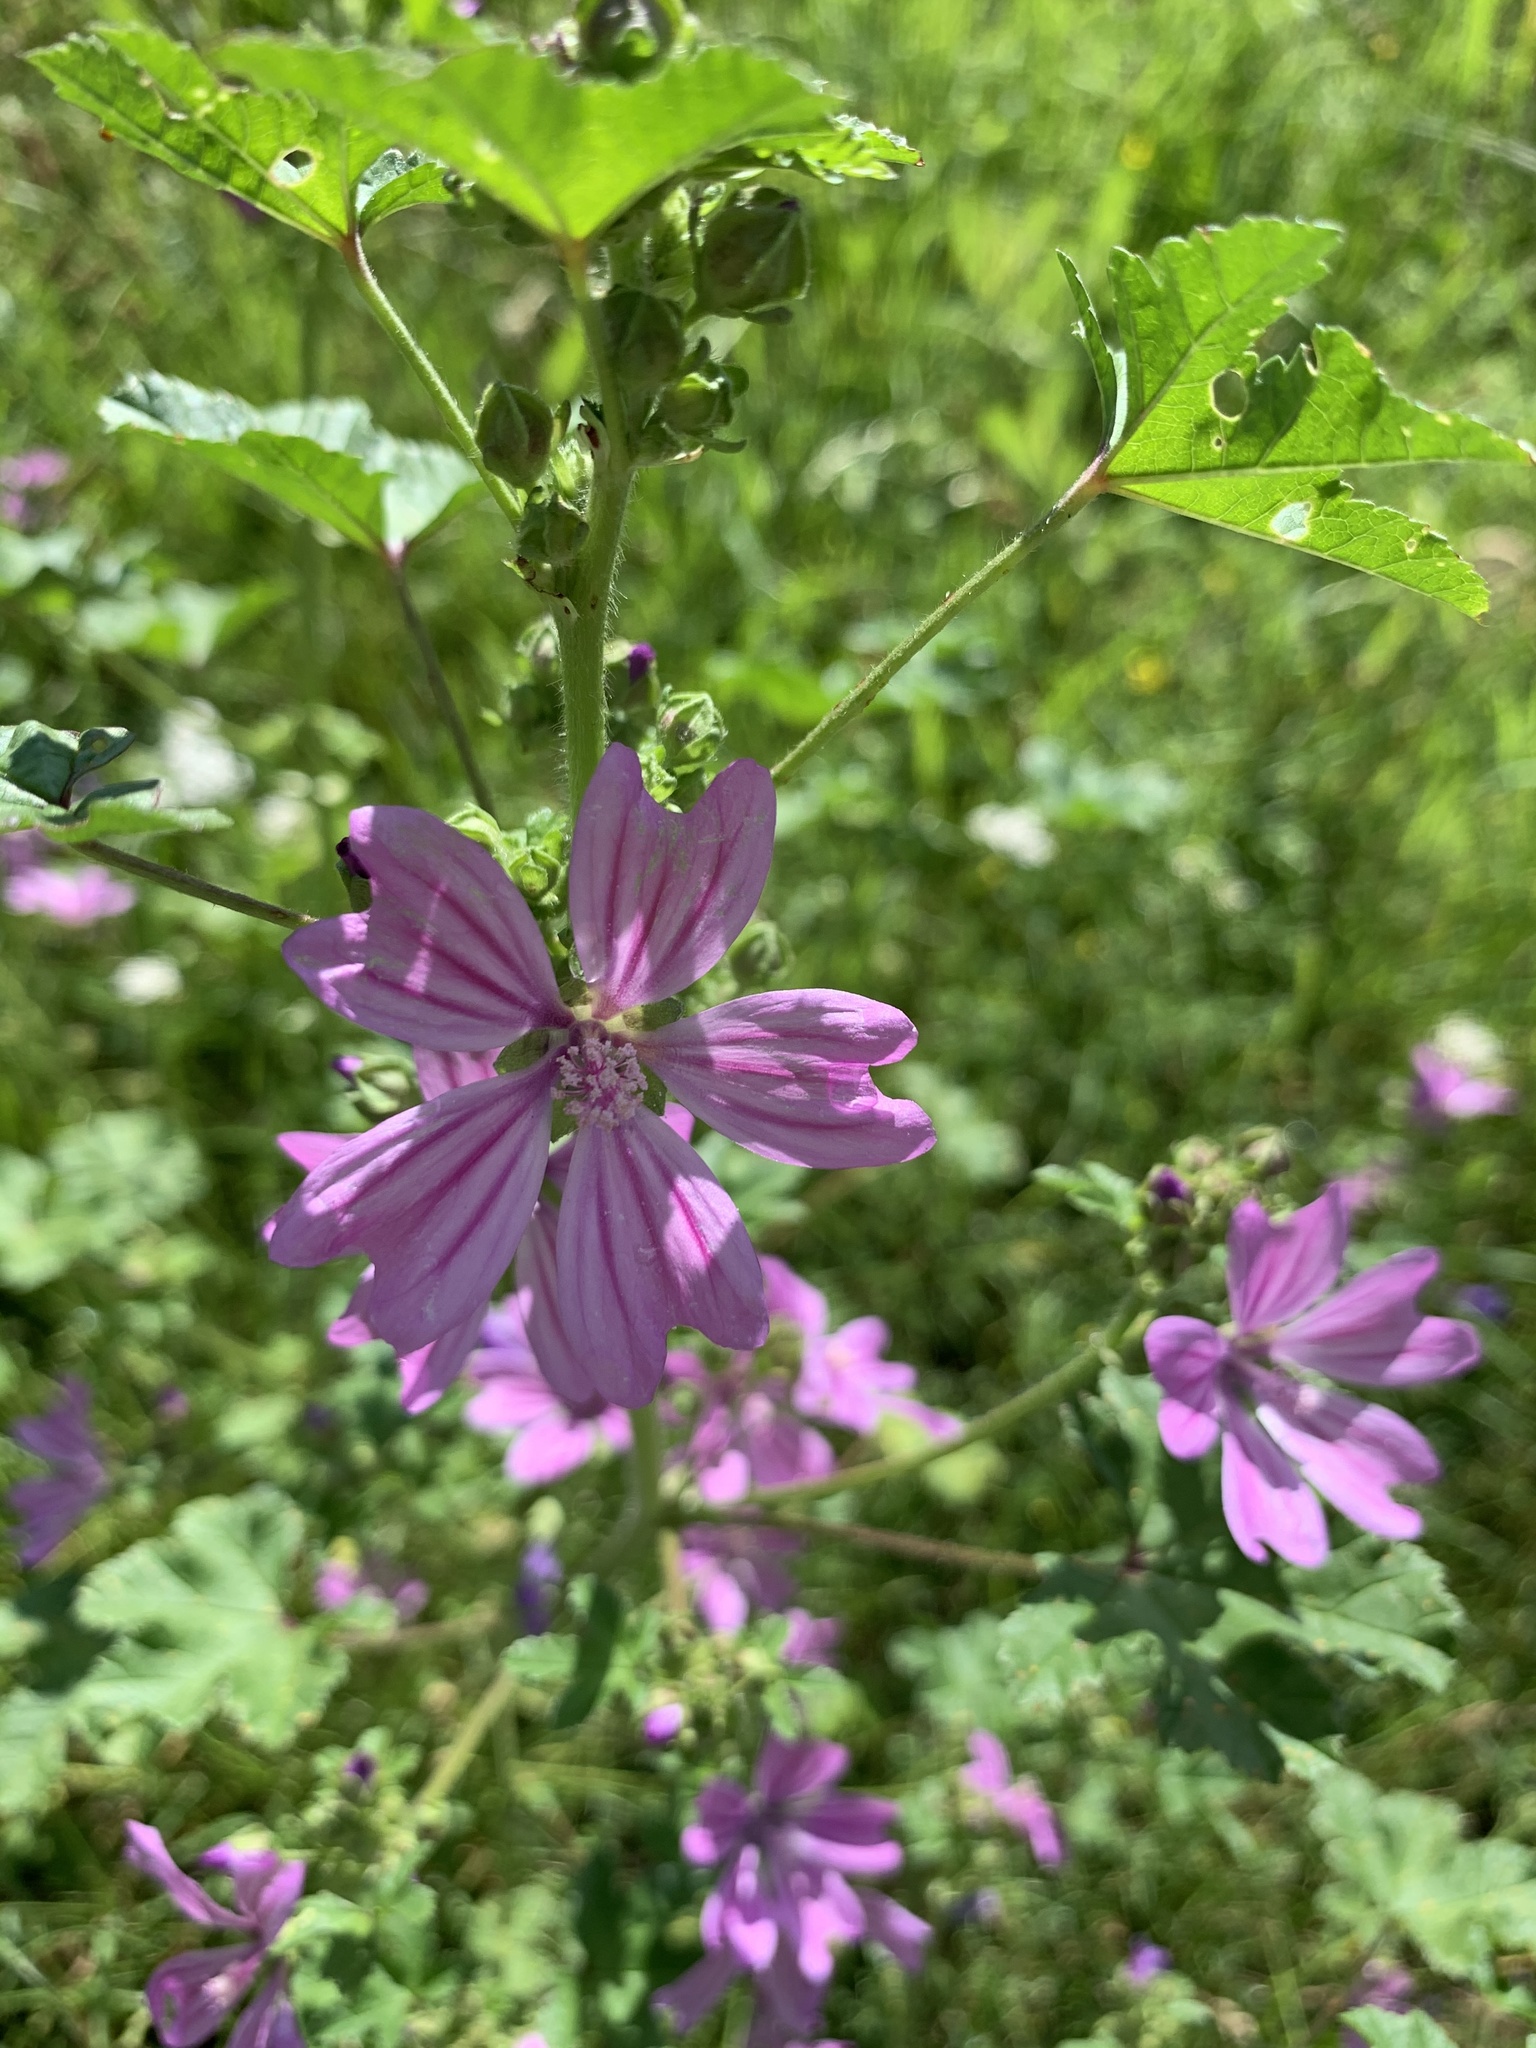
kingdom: Plantae
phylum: Tracheophyta
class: Magnoliopsida
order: Malvales
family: Malvaceae
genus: Malva
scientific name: Malva sylvestris
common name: Common mallow
